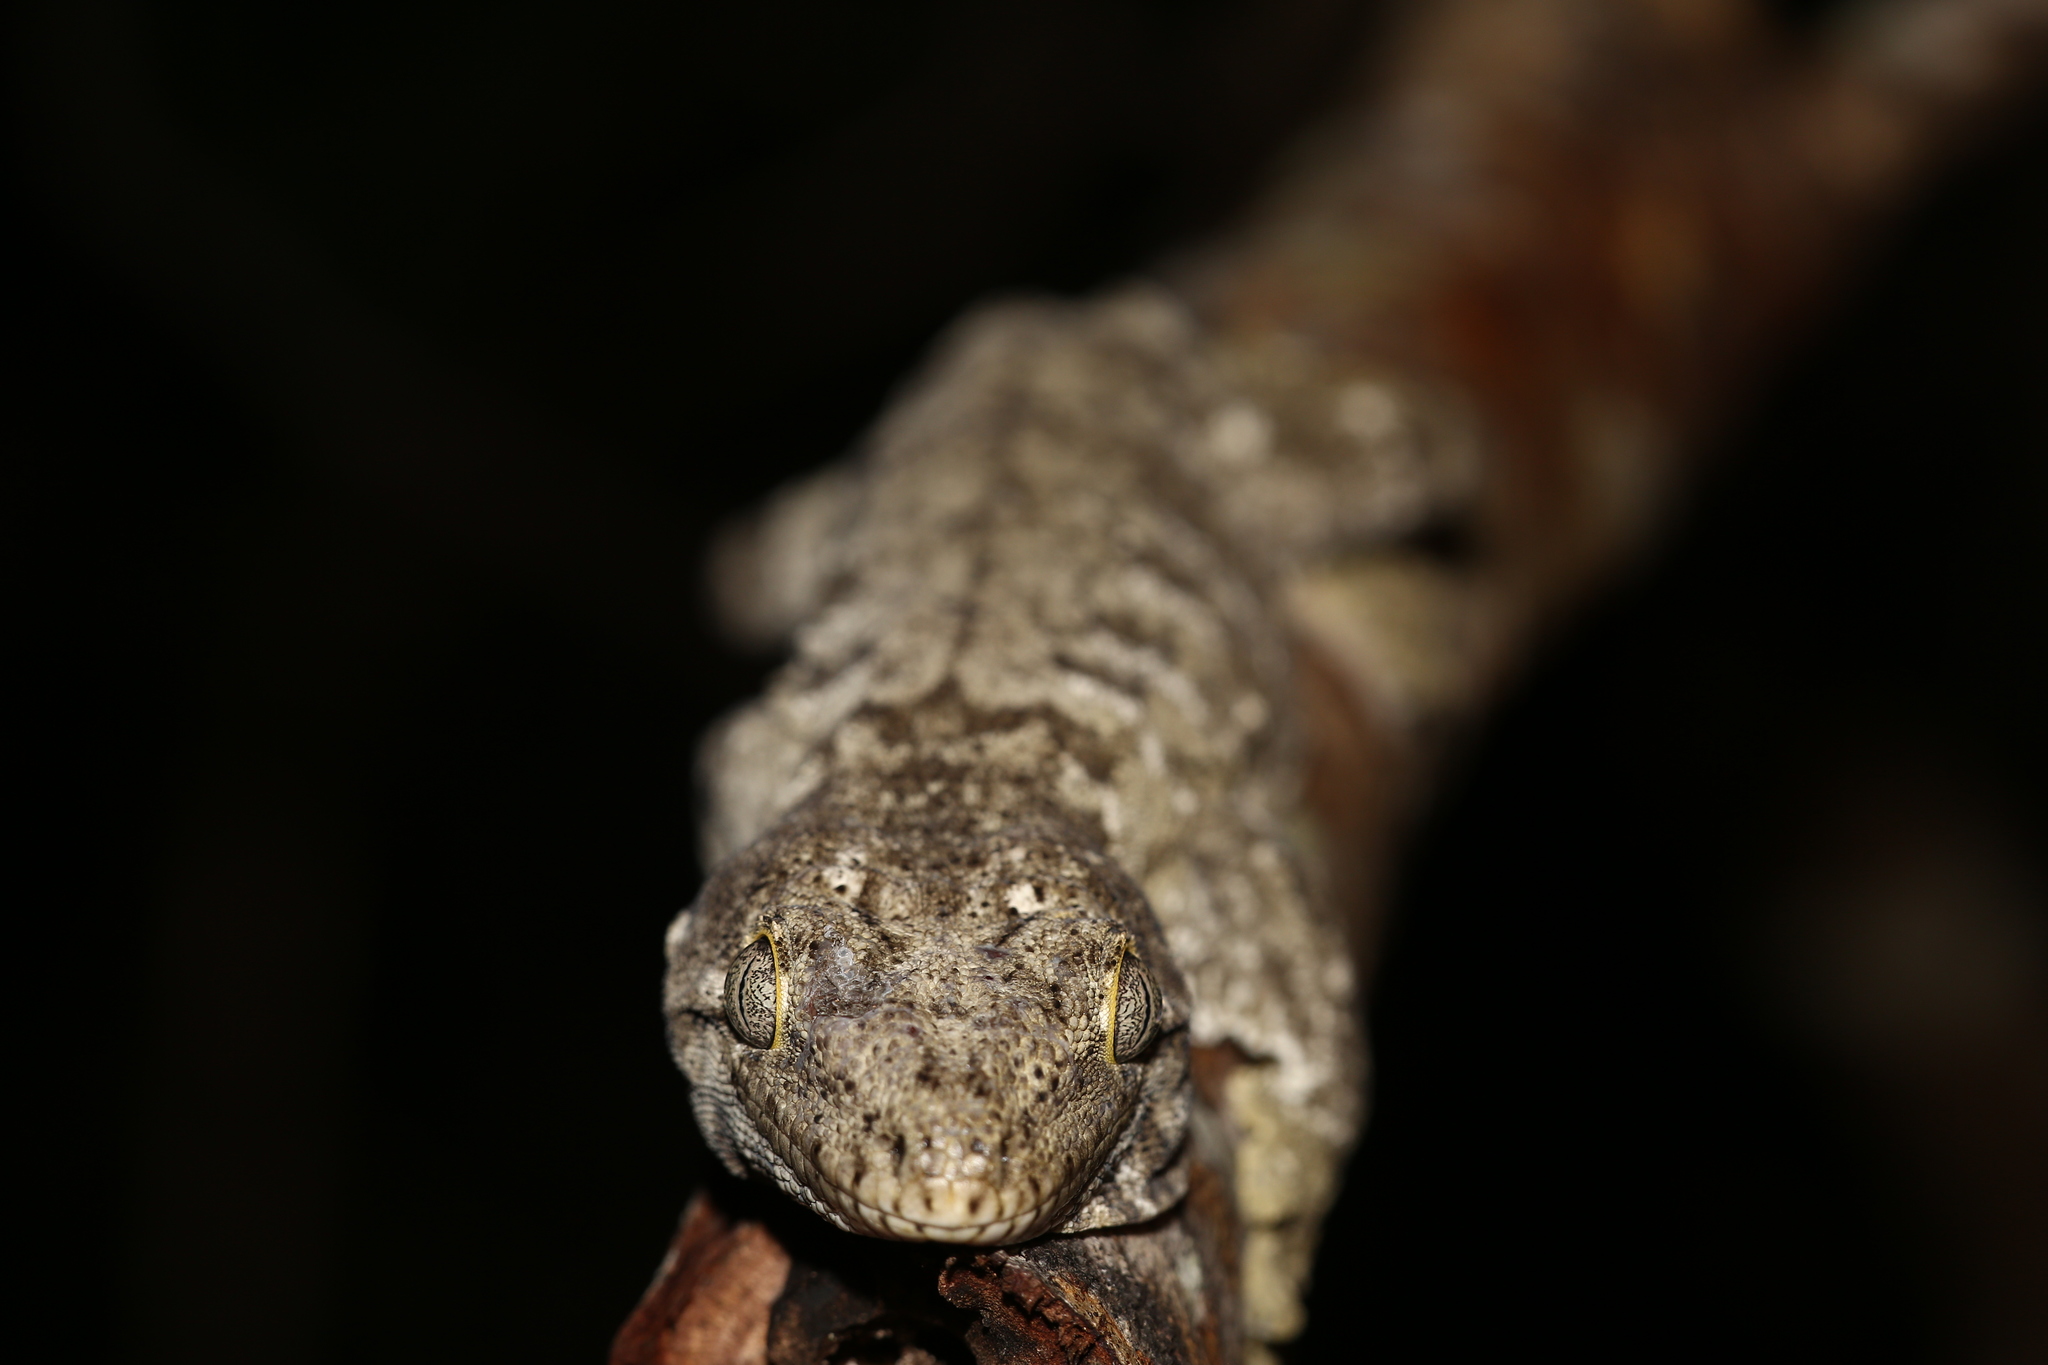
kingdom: Animalia
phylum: Chordata
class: Squamata
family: Diplodactylidae
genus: Rhacodactylus
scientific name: Rhacodactylus leachianus
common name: New caledonia giant gecko
